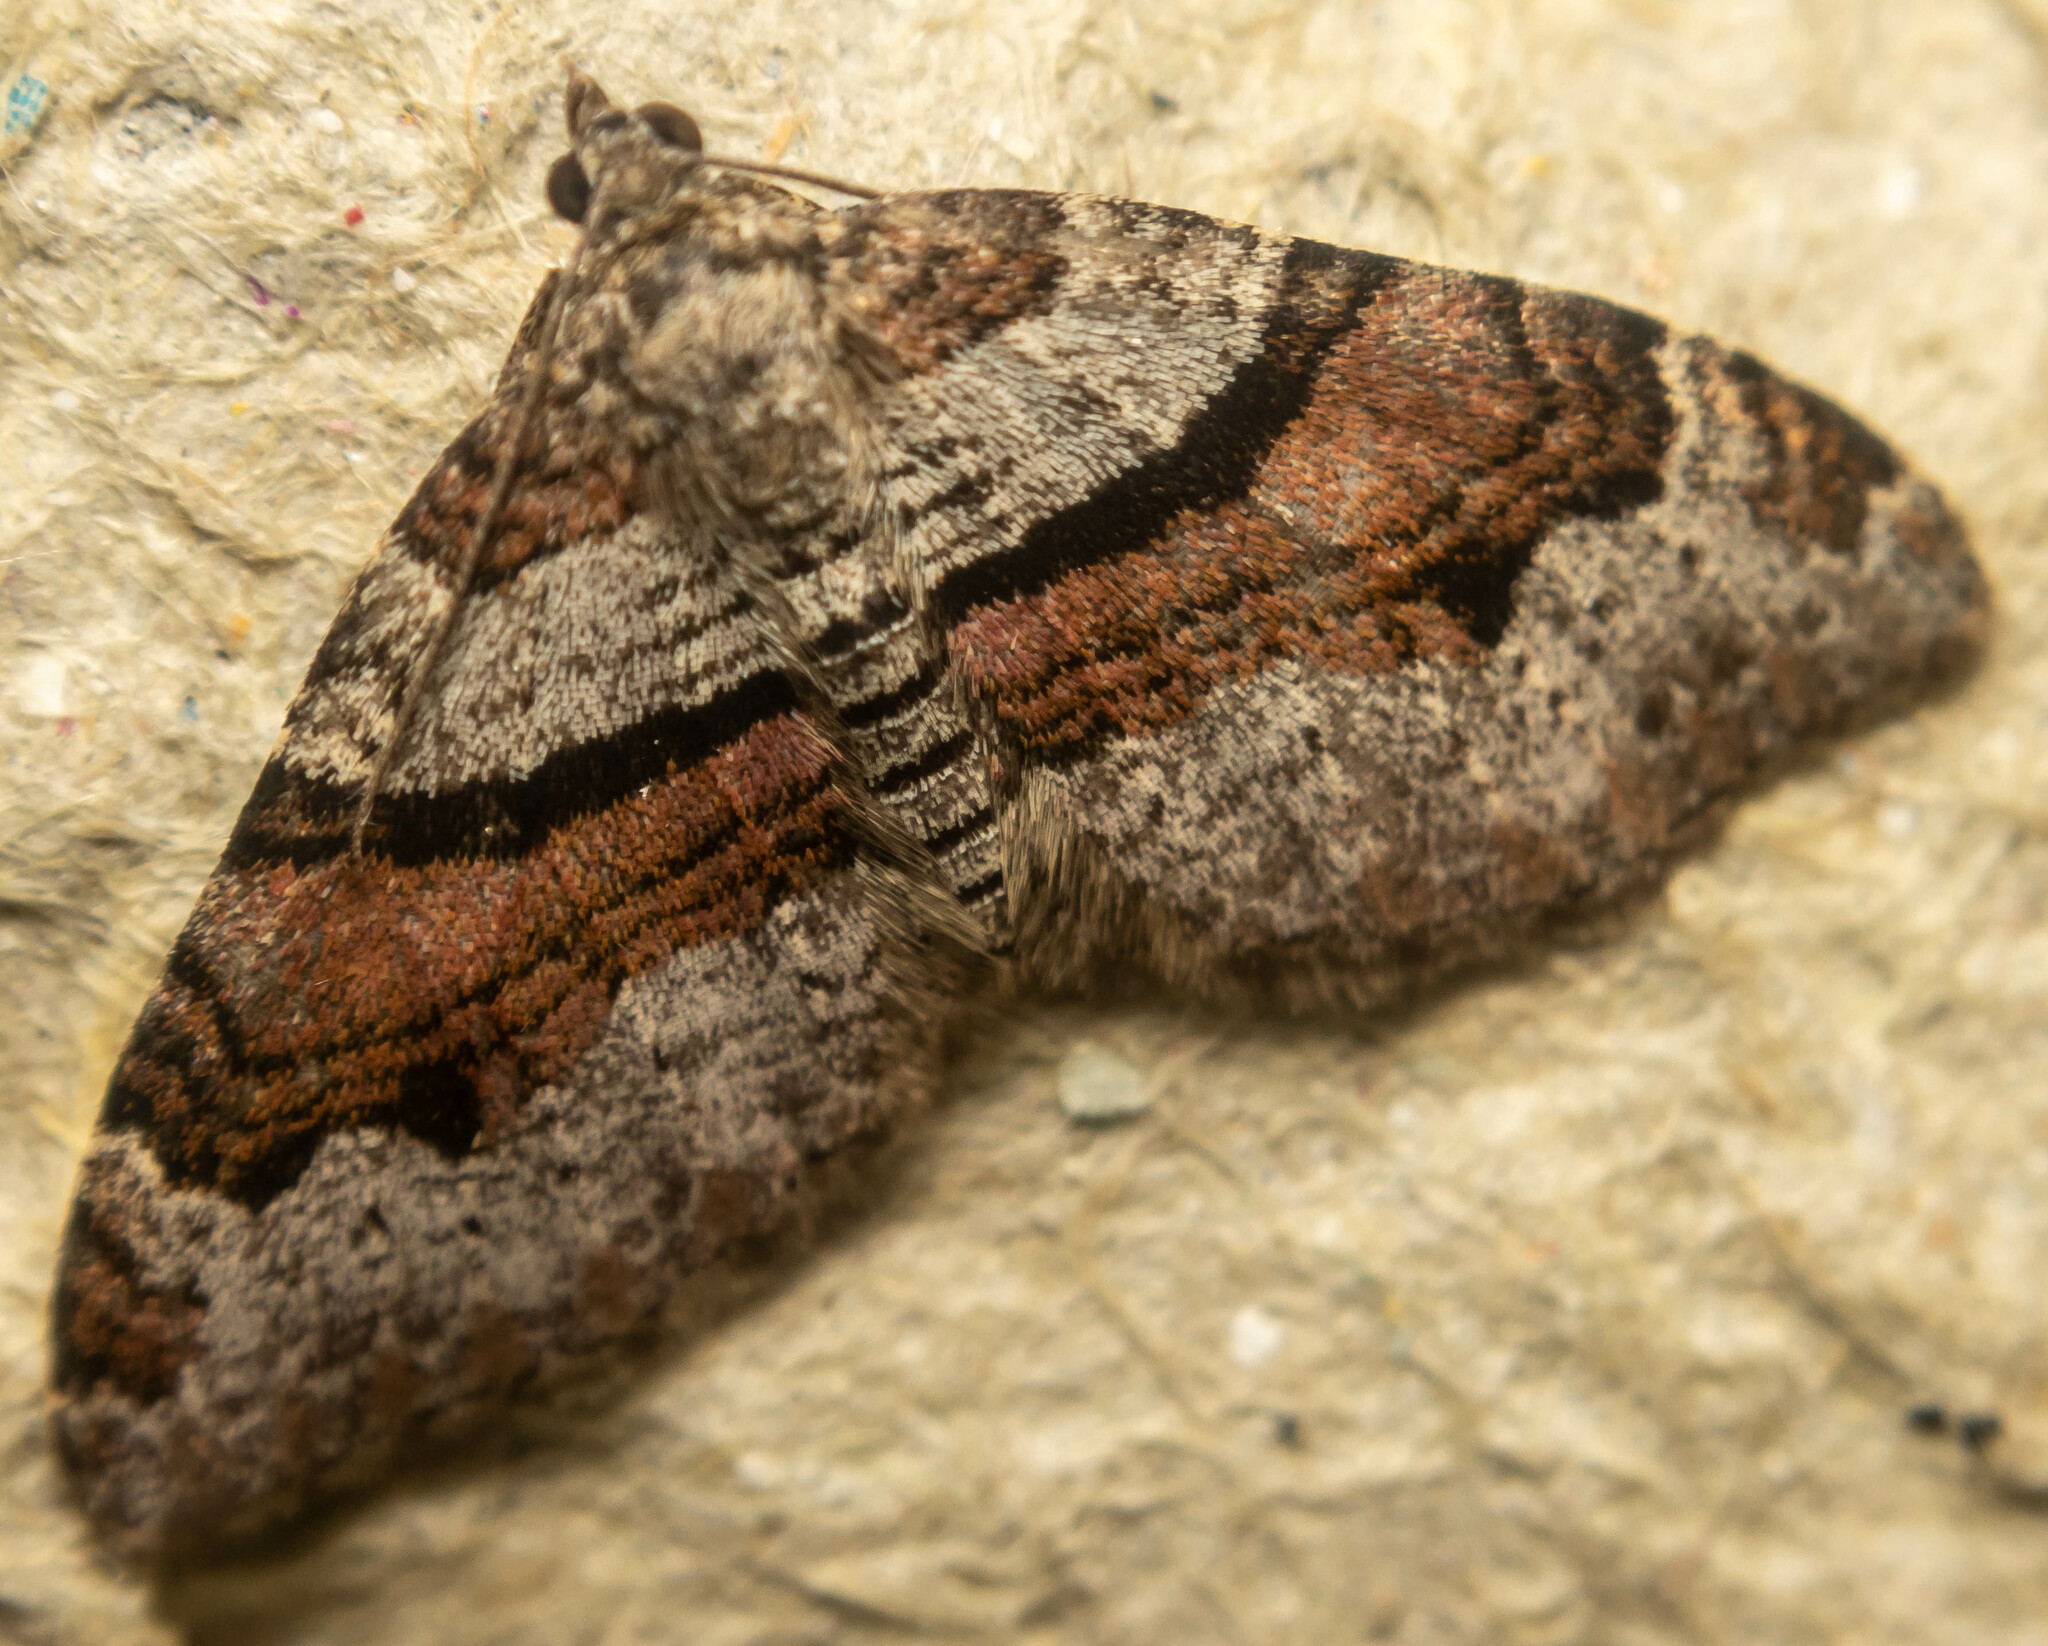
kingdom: Animalia
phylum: Arthropoda
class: Insecta
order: Lepidoptera
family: Geometridae
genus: Xanthorhoe
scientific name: Xanthorhoe designata
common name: Flame carpet
